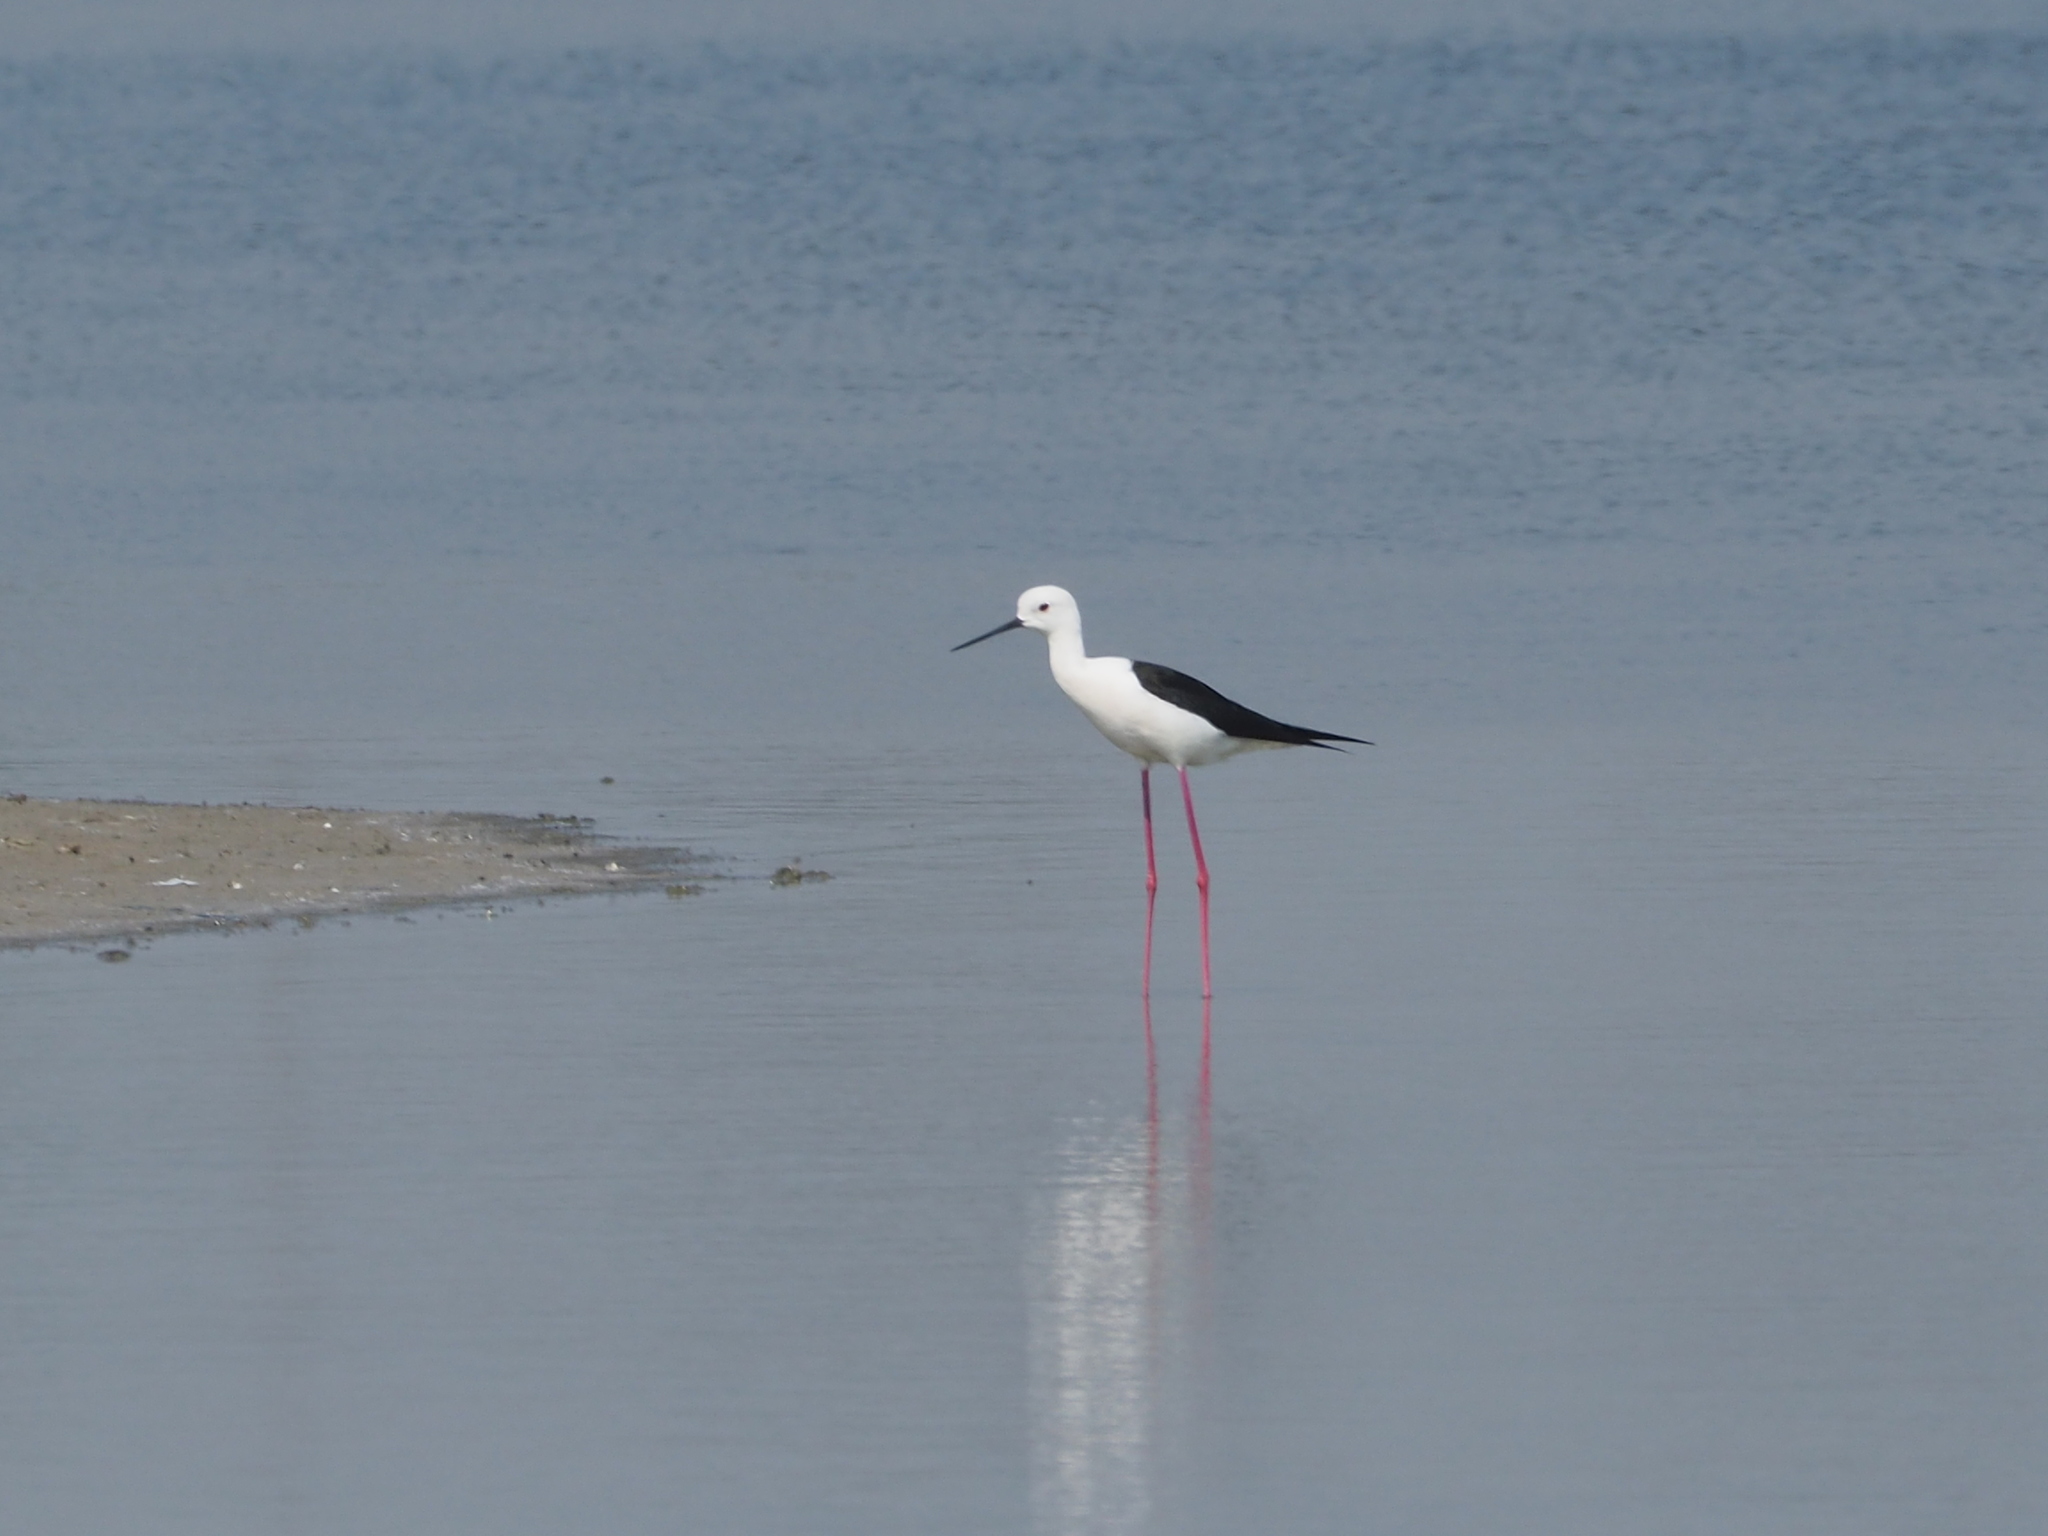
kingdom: Animalia
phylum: Chordata
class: Aves
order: Charadriiformes
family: Recurvirostridae
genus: Himantopus
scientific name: Himantopus himantopus
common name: Black-winged stilt
